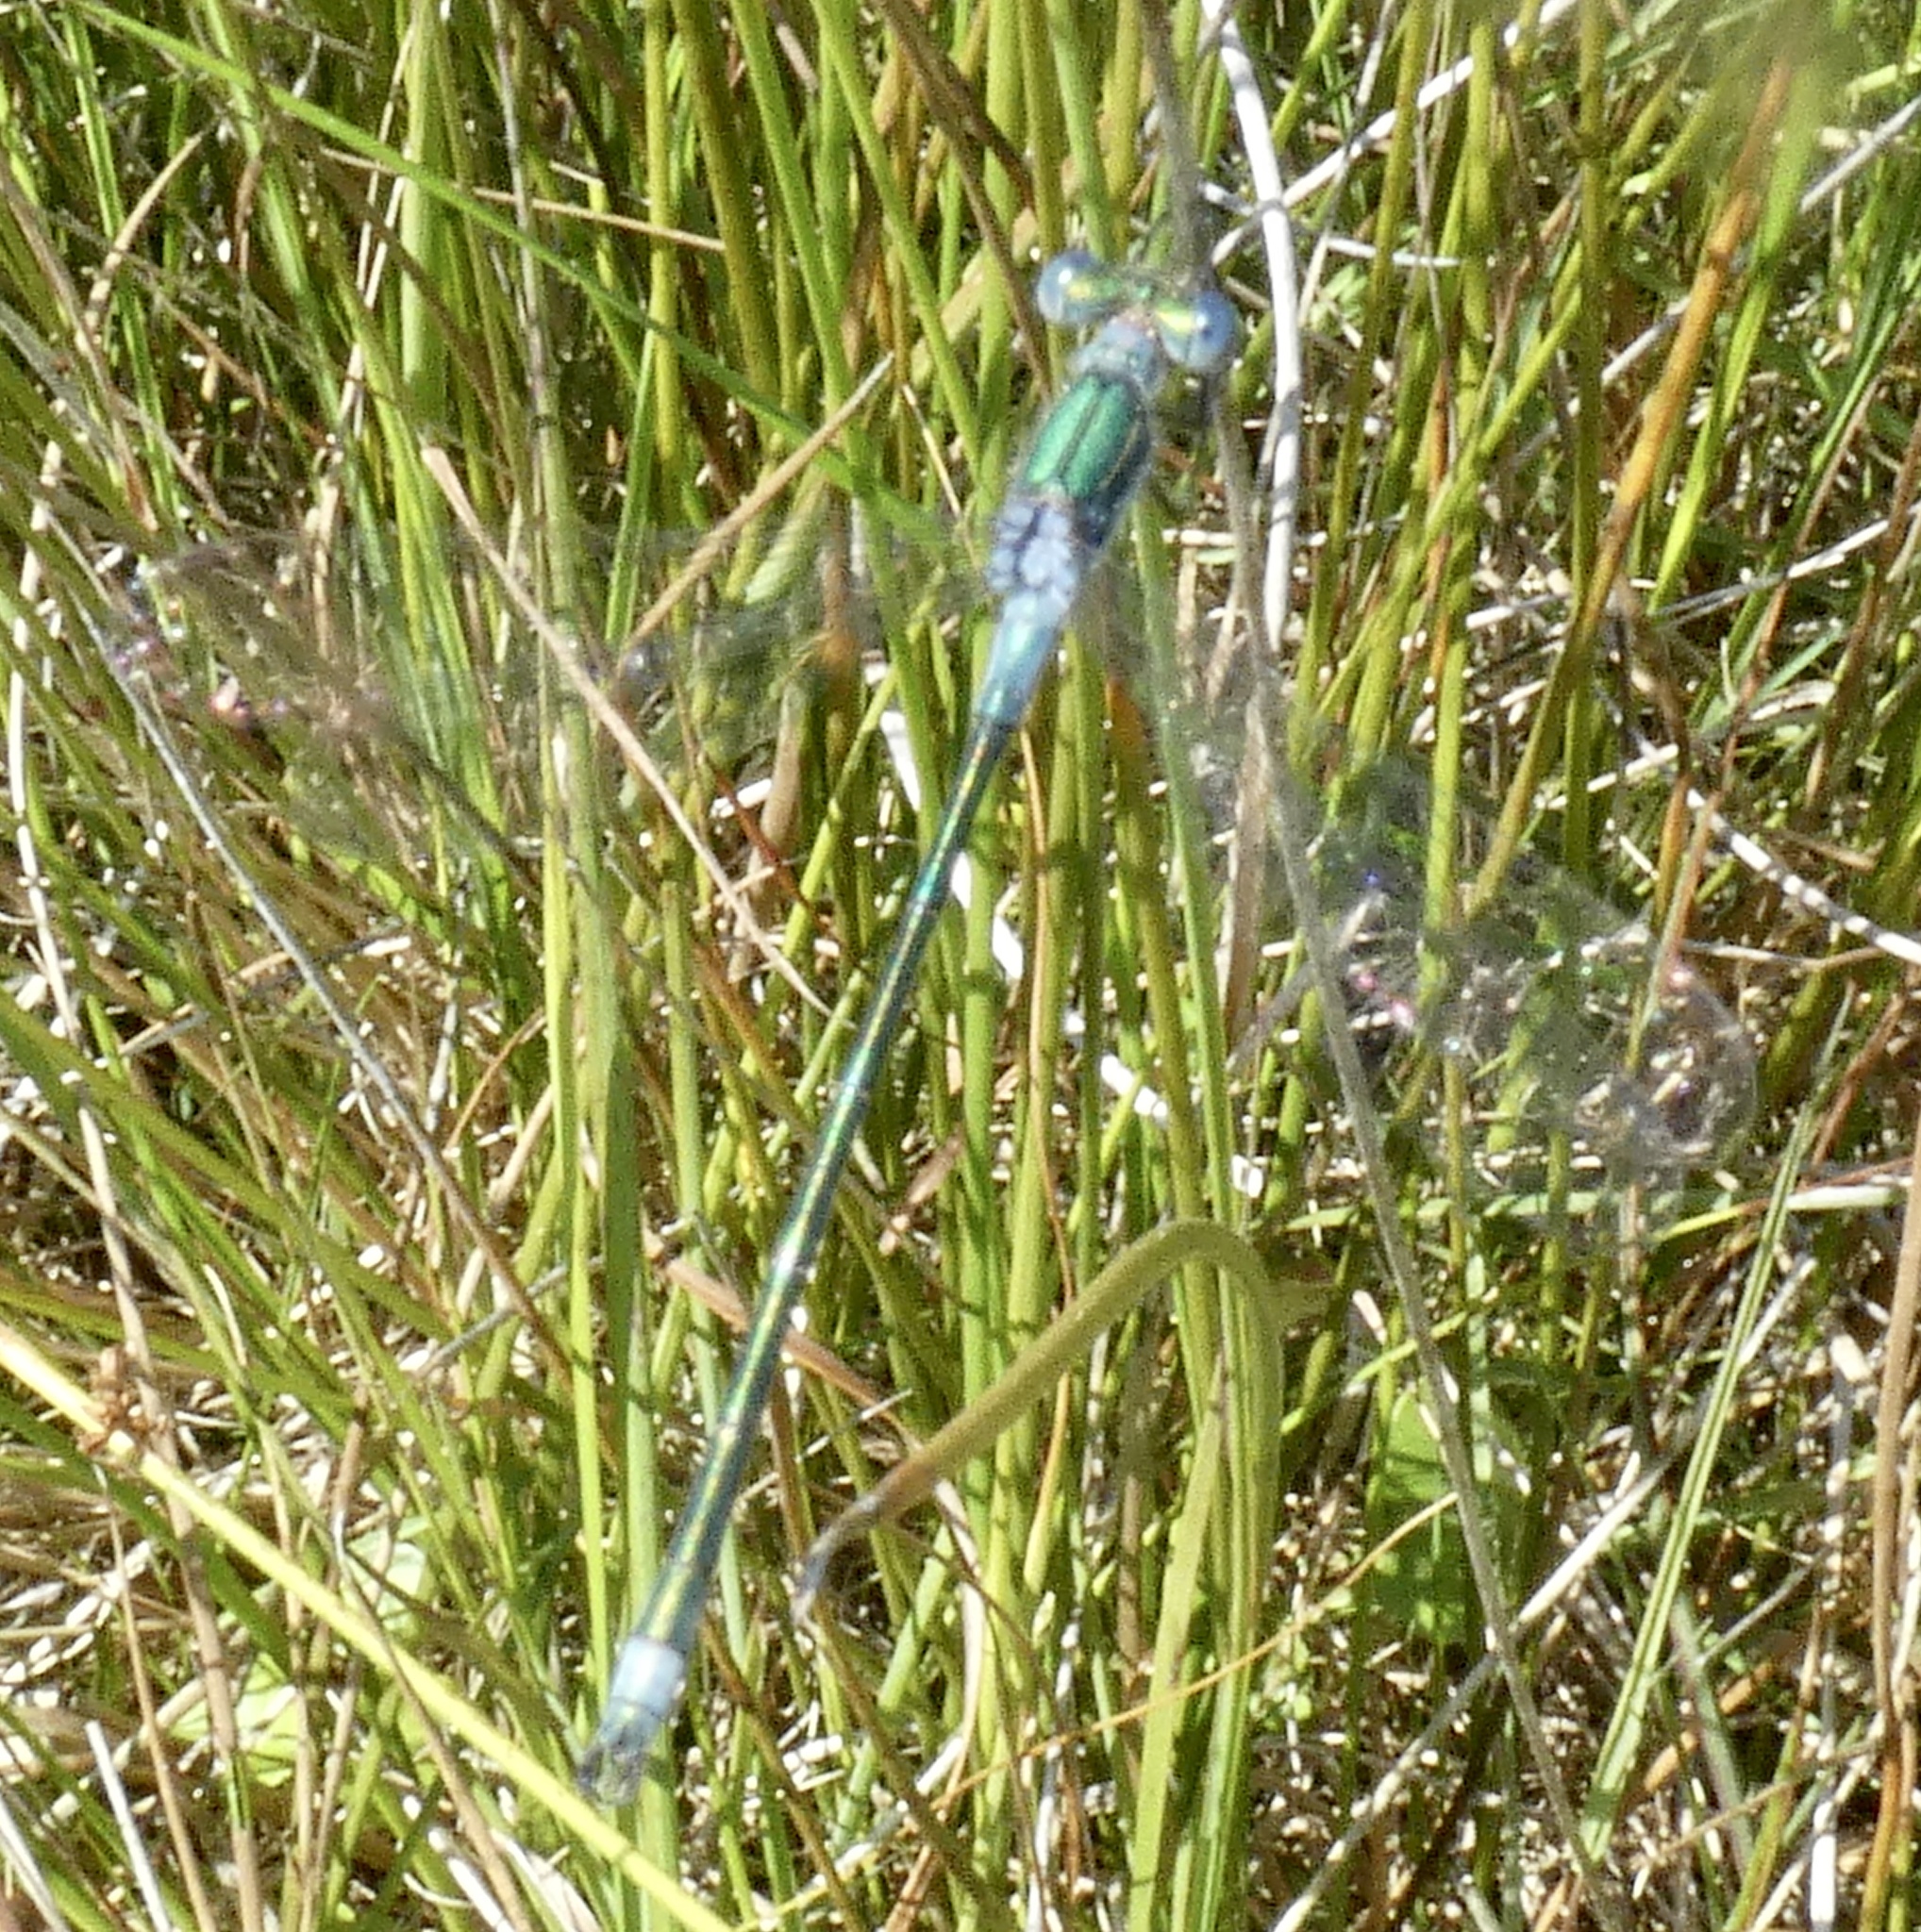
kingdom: Animalia
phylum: Arthropoda
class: Insecta
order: Odonata
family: Lestidae
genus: Lestes
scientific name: Lestes sponsa
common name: Common spreadwing
